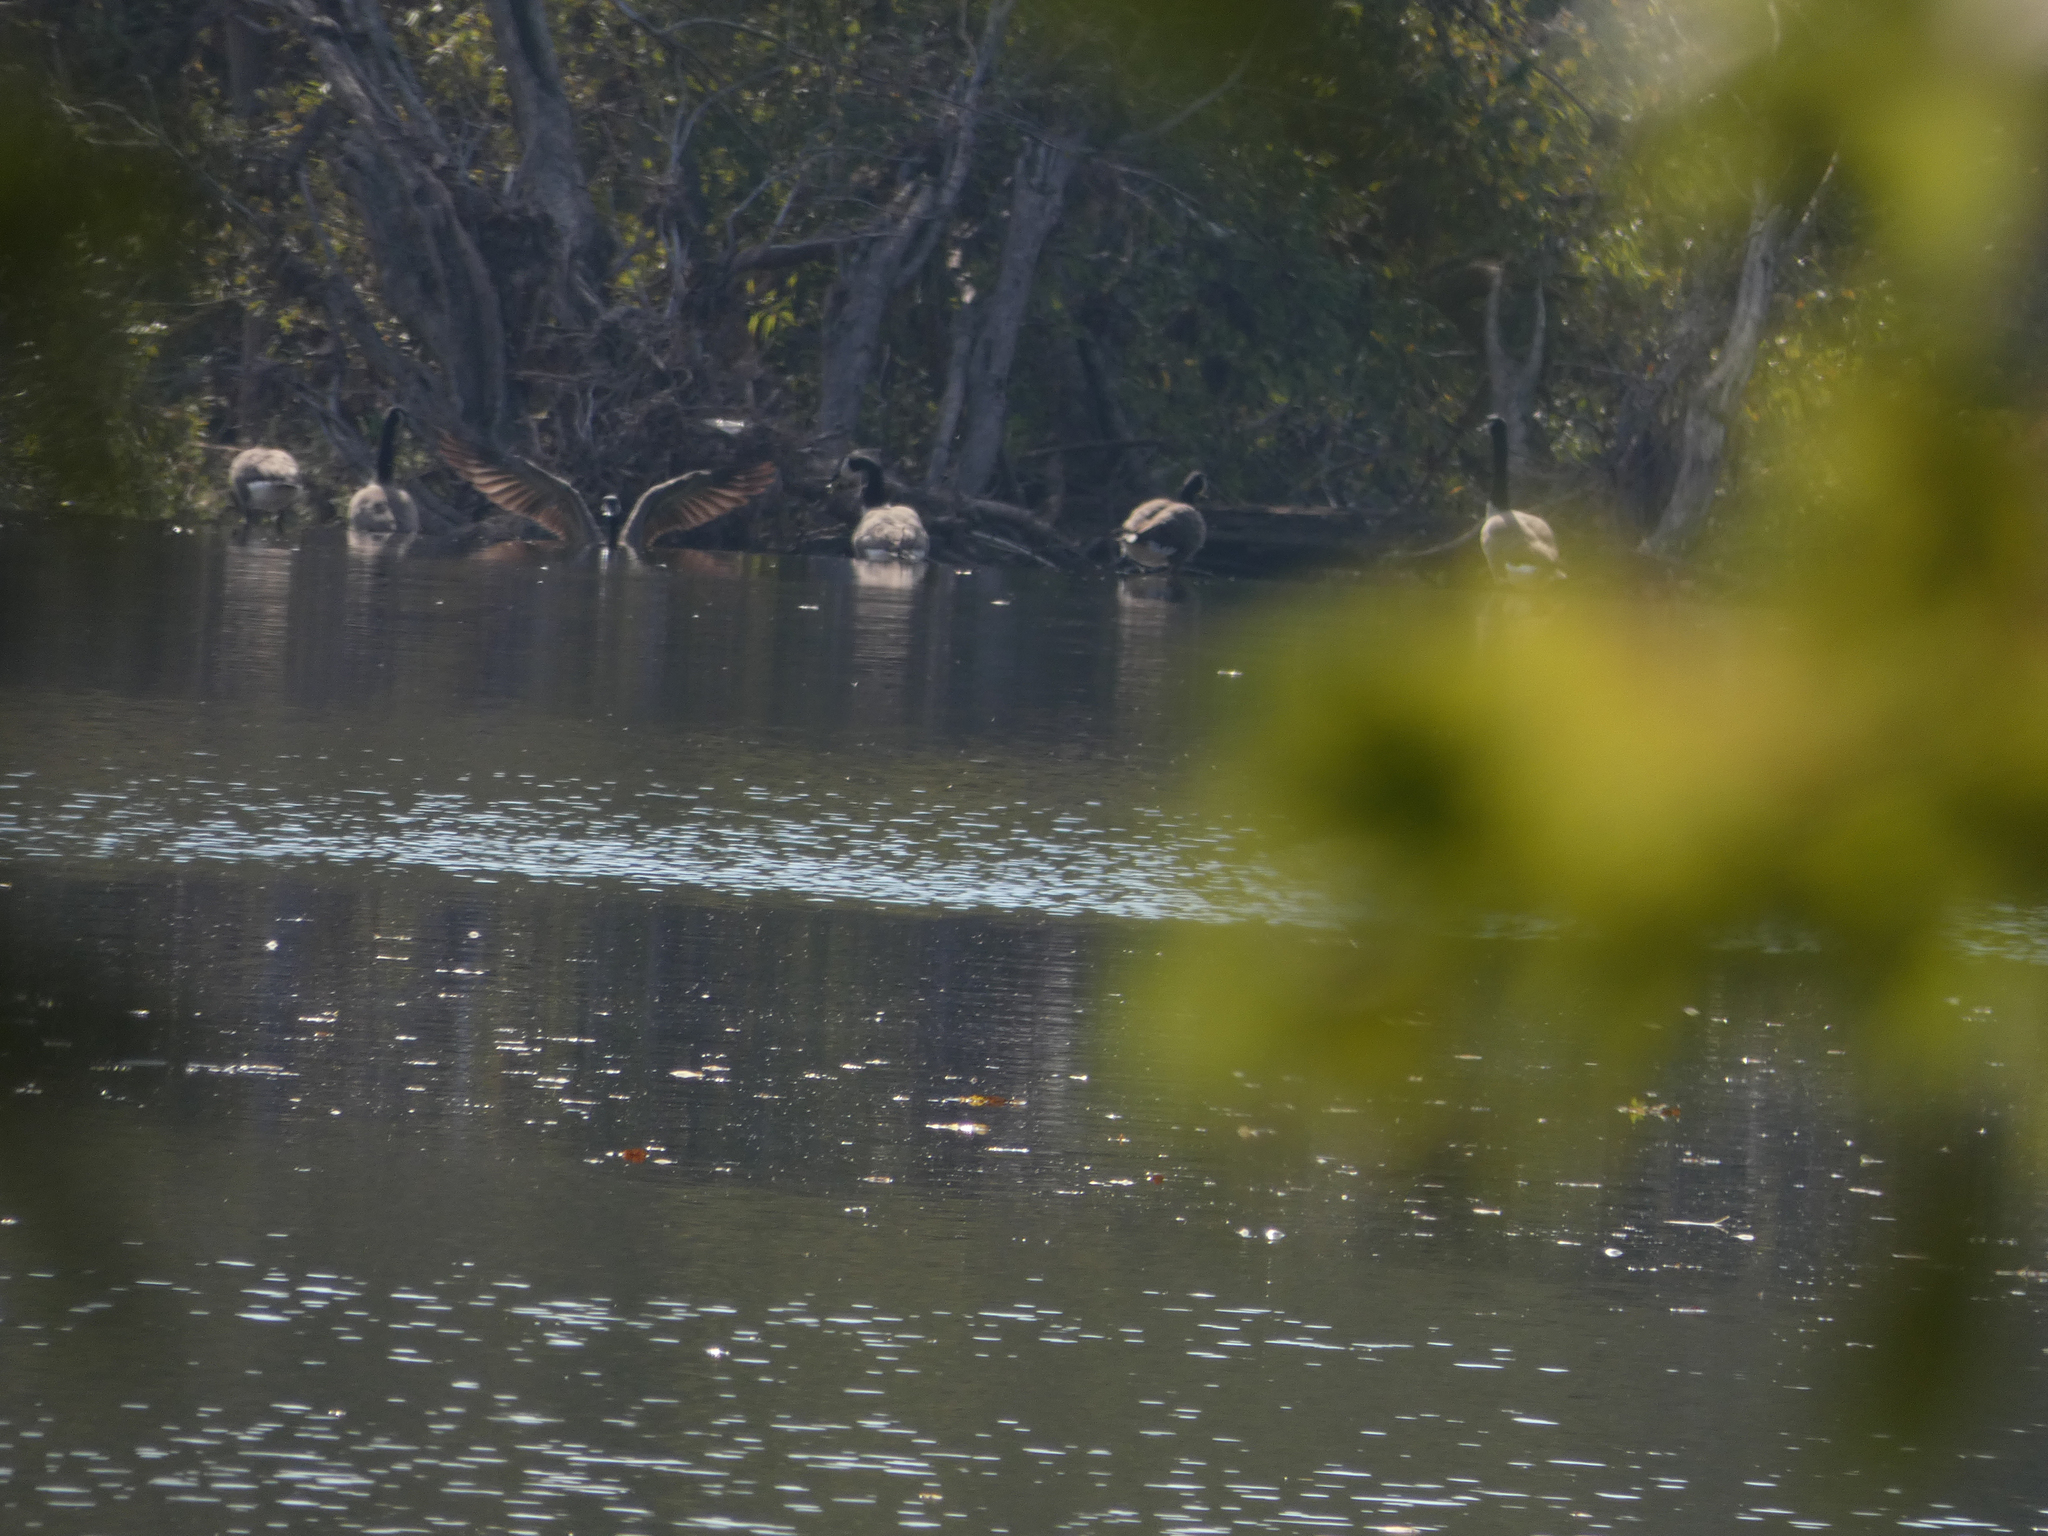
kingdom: Animalia
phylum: Chordata
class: Aves
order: Anseriformes
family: Anatidae
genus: Branta
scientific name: Branta canadensis
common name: Canada goose
